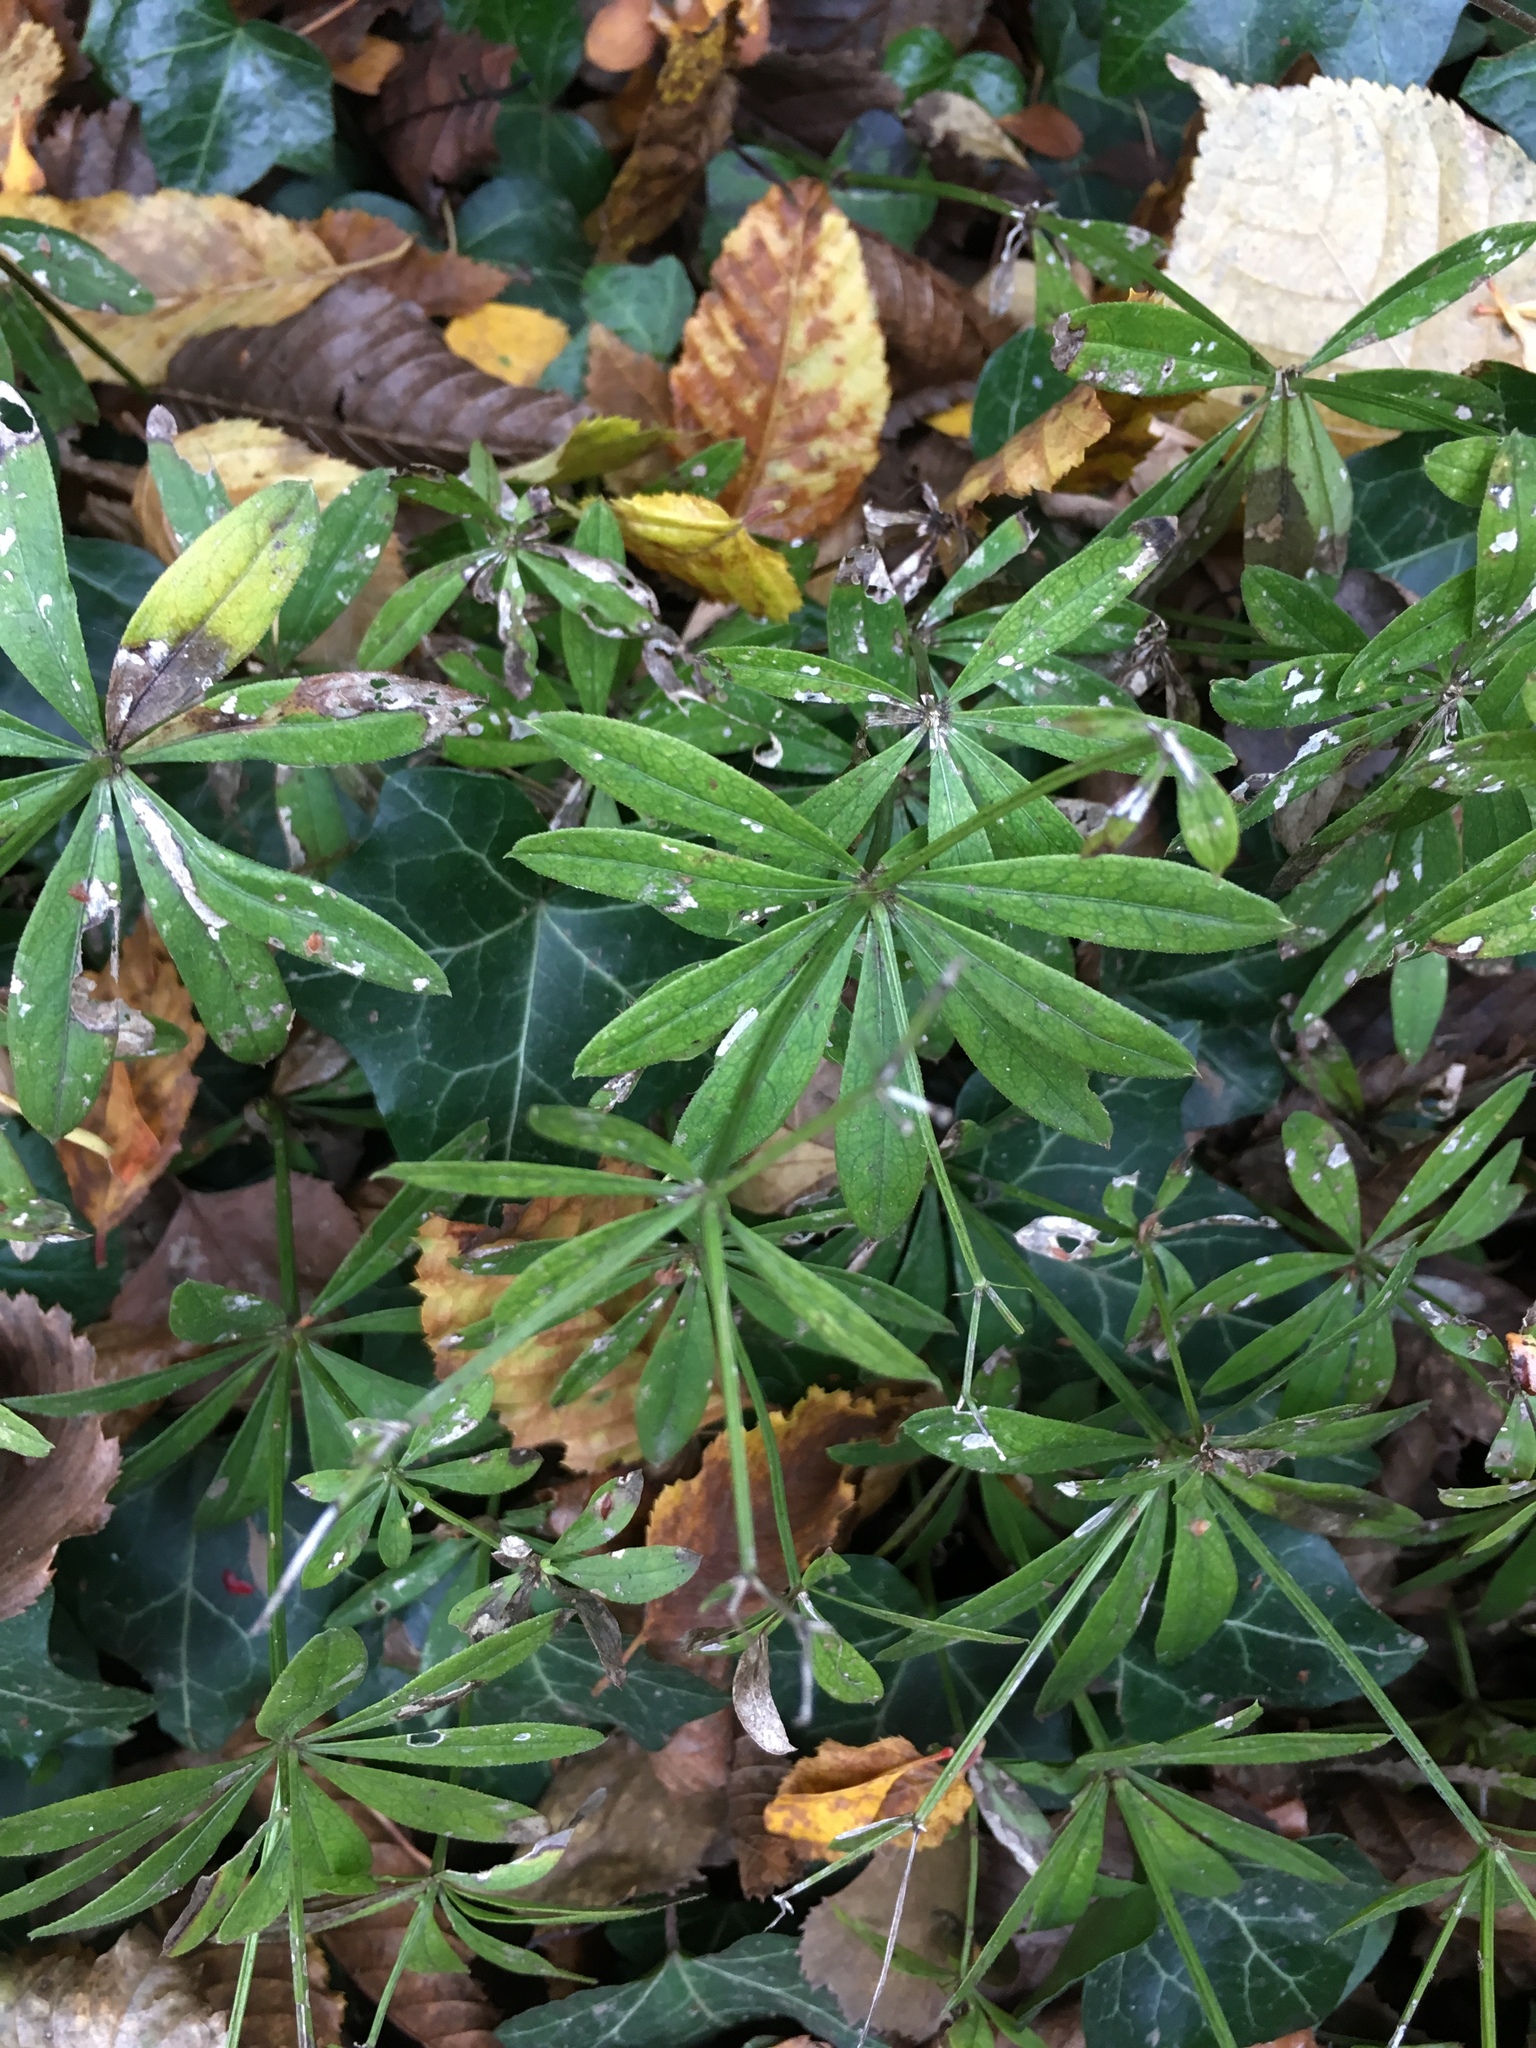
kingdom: Plantae
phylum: Tracheophyta
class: Magnoliopsida
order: Gentianales
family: Rubiaceae
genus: Galium
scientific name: Galium odoratum
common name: Sweet woodruff
